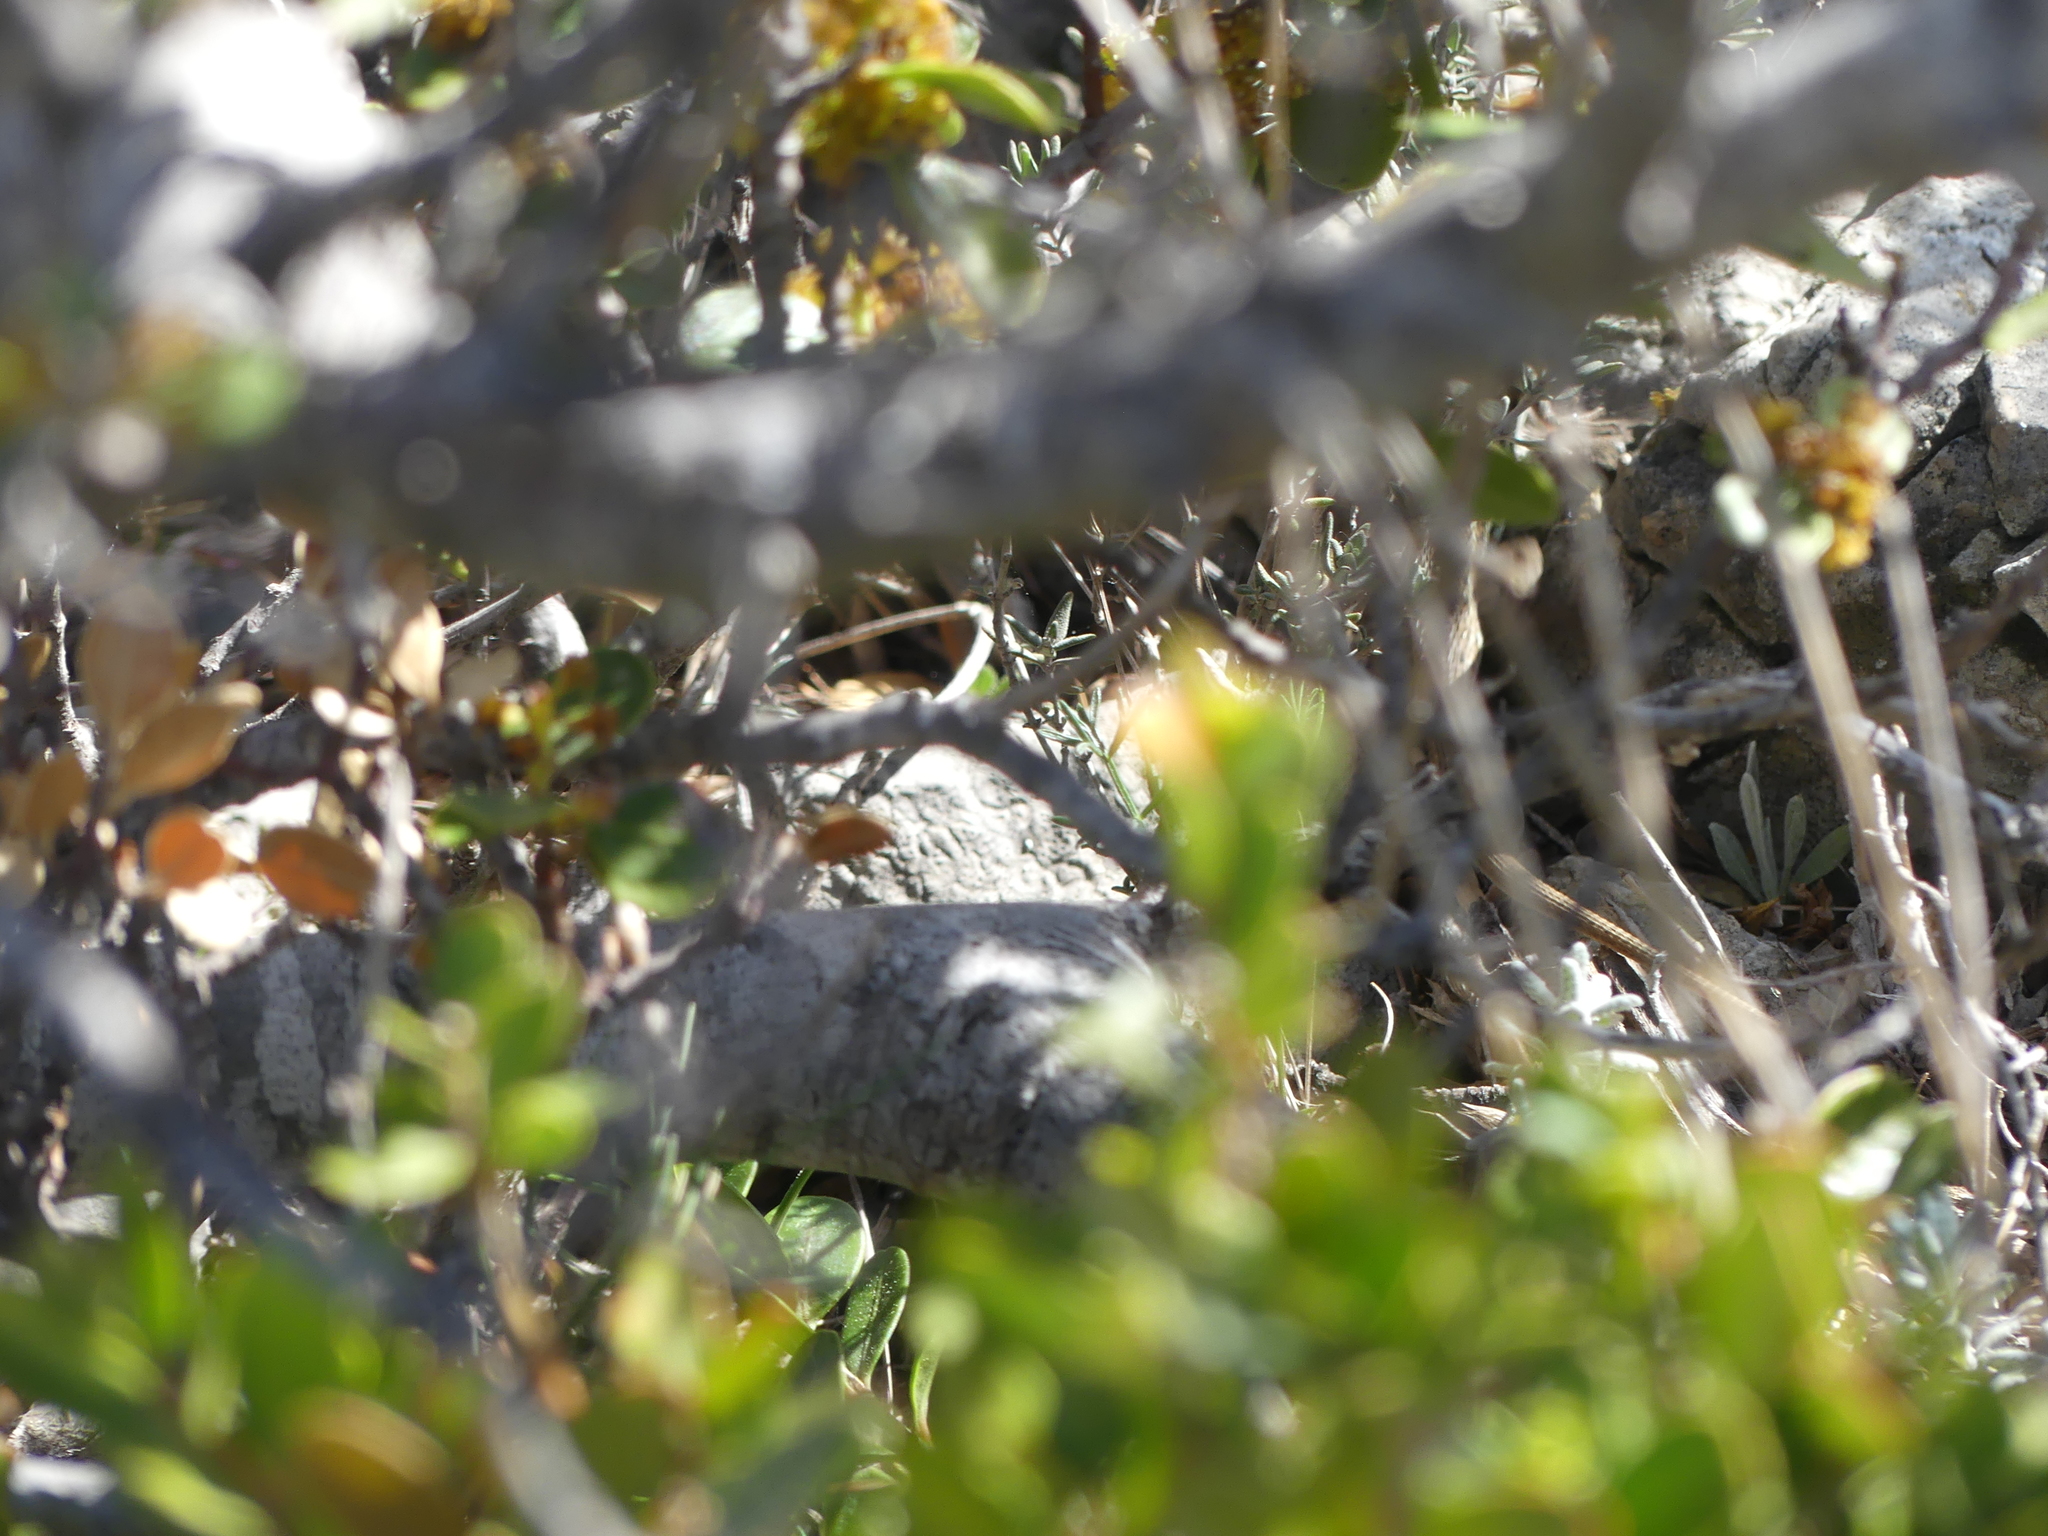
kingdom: Animalia
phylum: Chordata
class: Squamata
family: Lacertidae
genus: Psammodromus
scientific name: Psammodromus edwarsianus
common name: East iberian psammodromus
